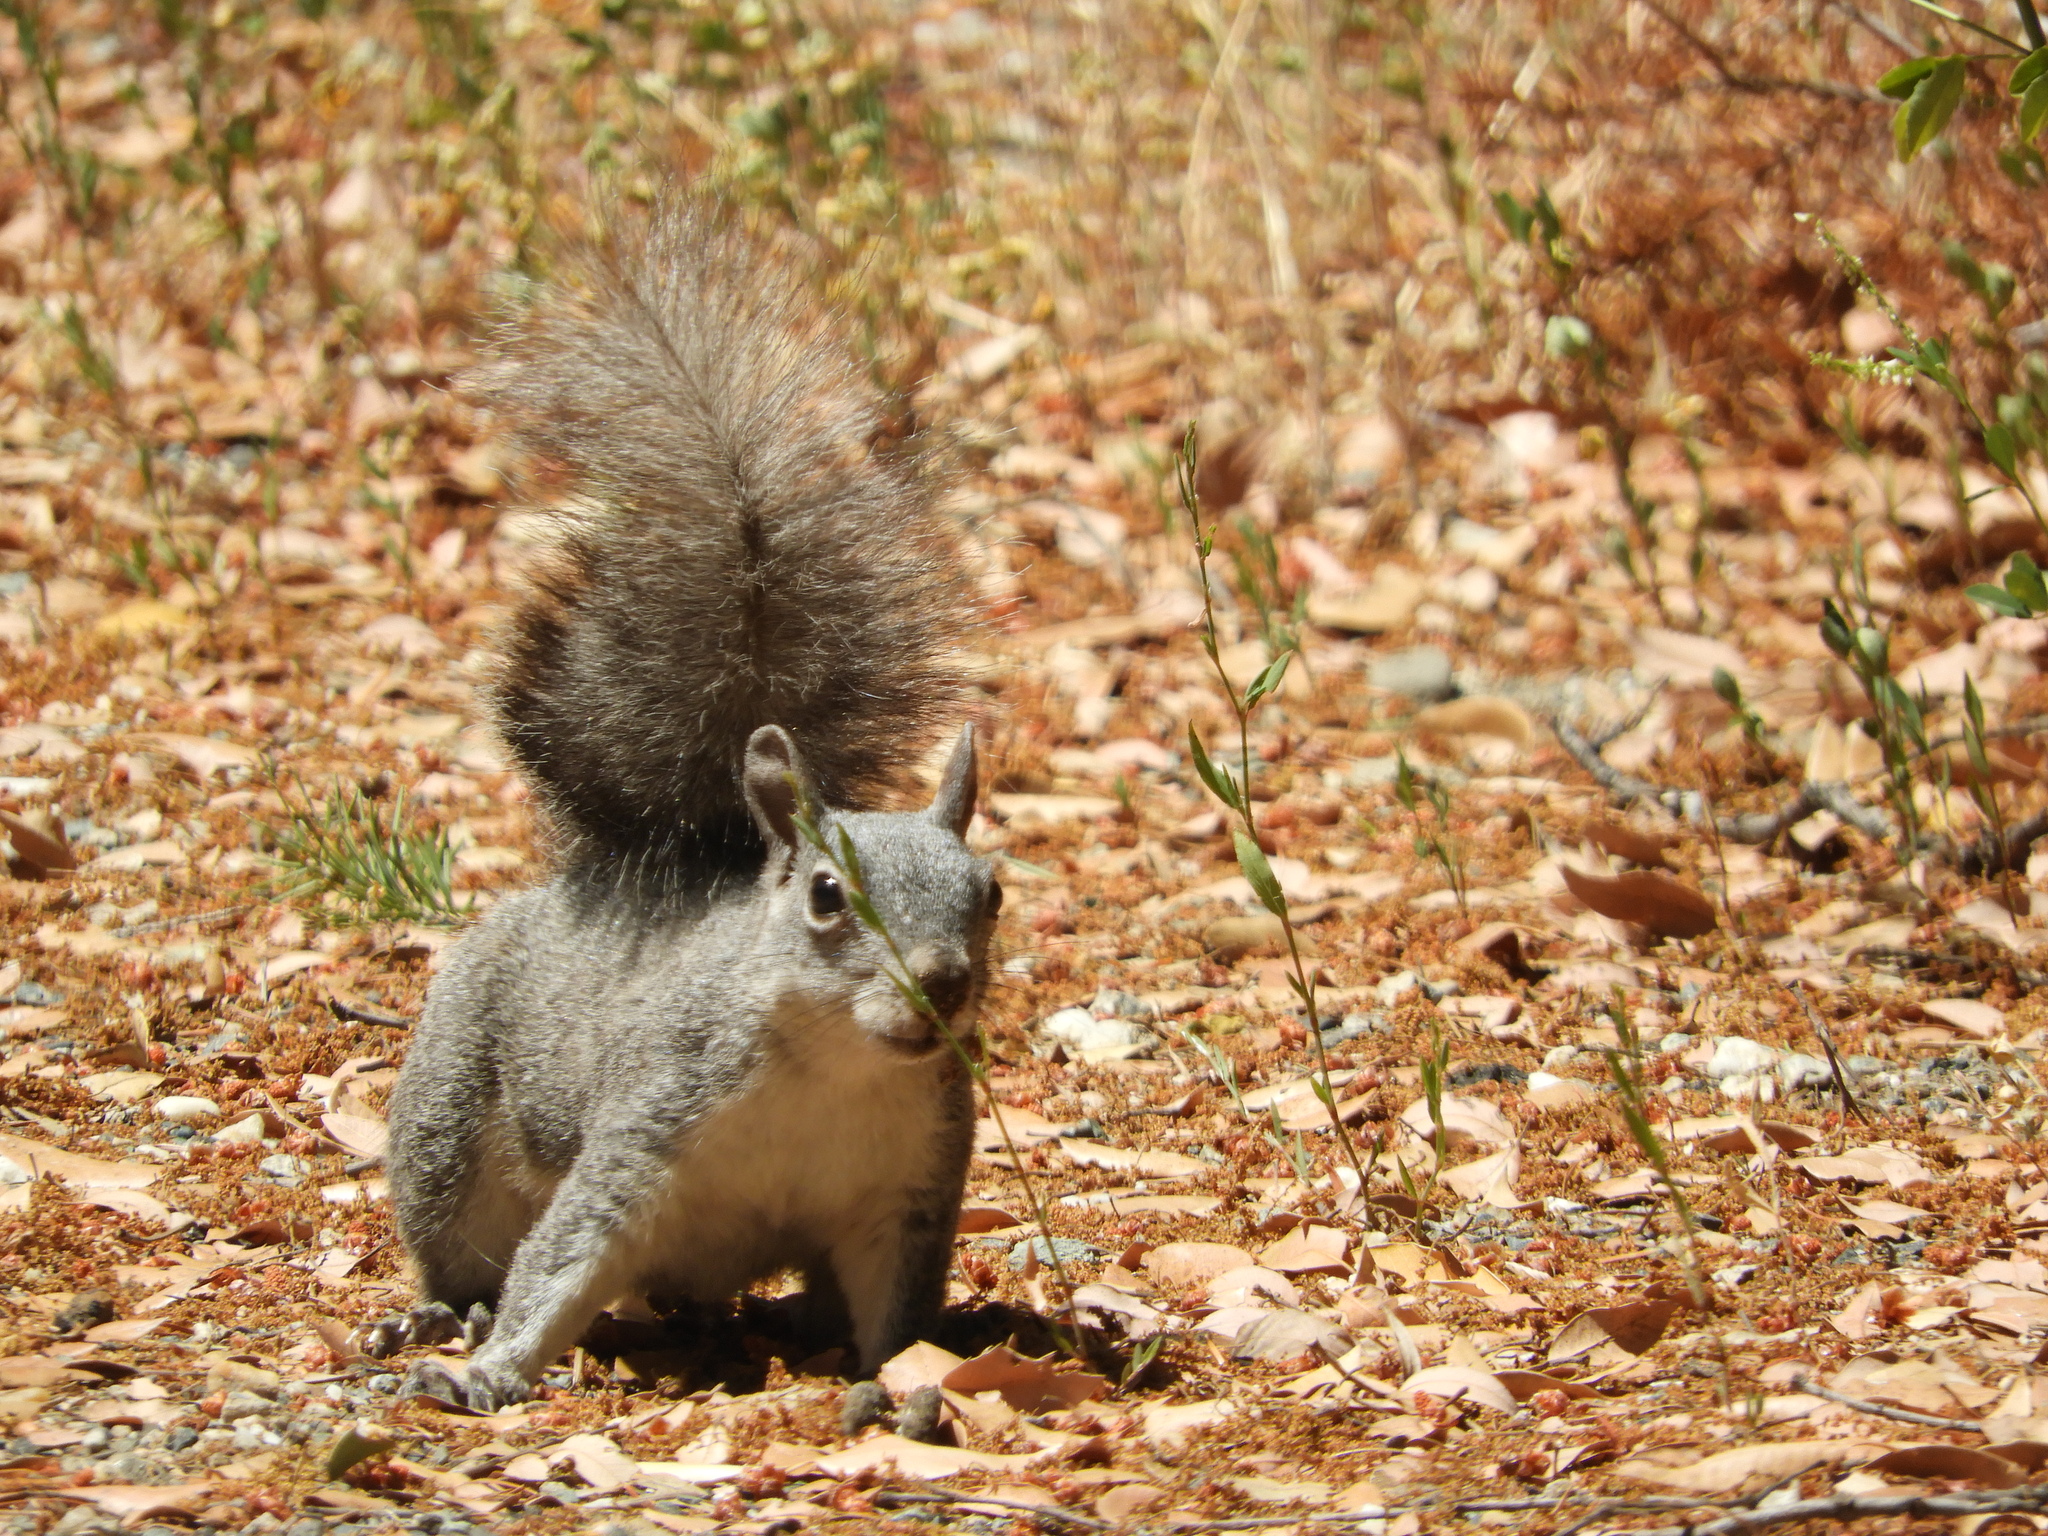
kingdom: Animalia
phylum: Chordata
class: Mammalia
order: Rodentia
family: Sciuridae
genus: Sciurus
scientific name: Sciurus griseus
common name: Western gray squirrel
